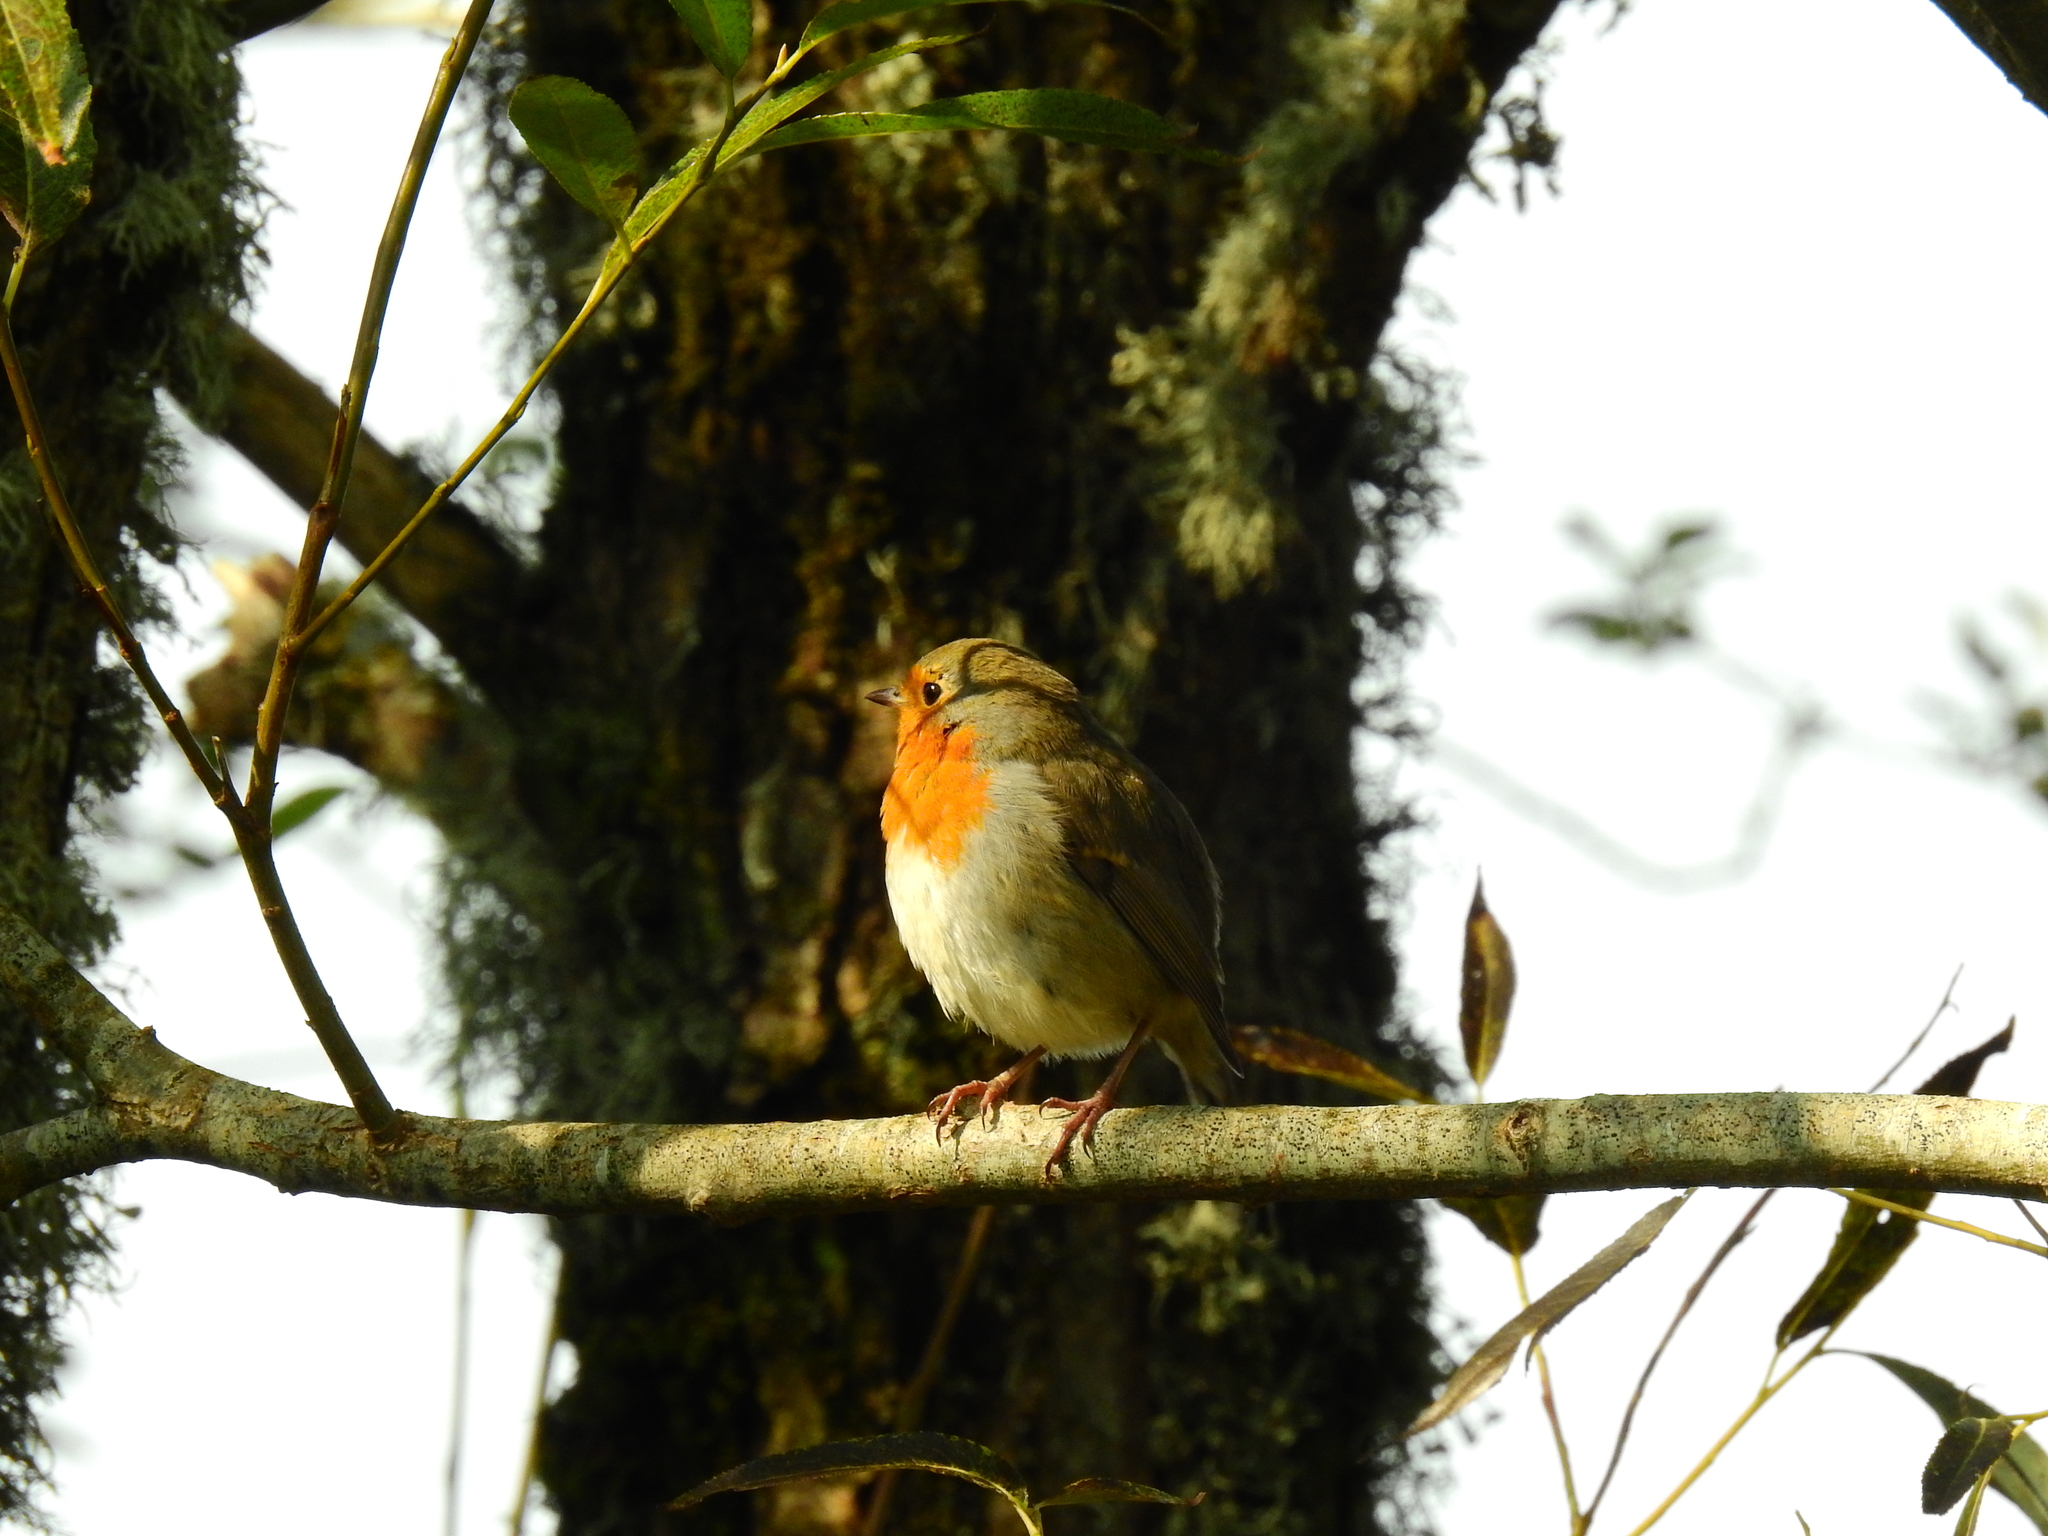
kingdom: Animalia
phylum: Chordata
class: Aves
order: Passeriformes
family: Muscicapidae
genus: Erithacus
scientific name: Erithacus rubecula
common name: European robin
